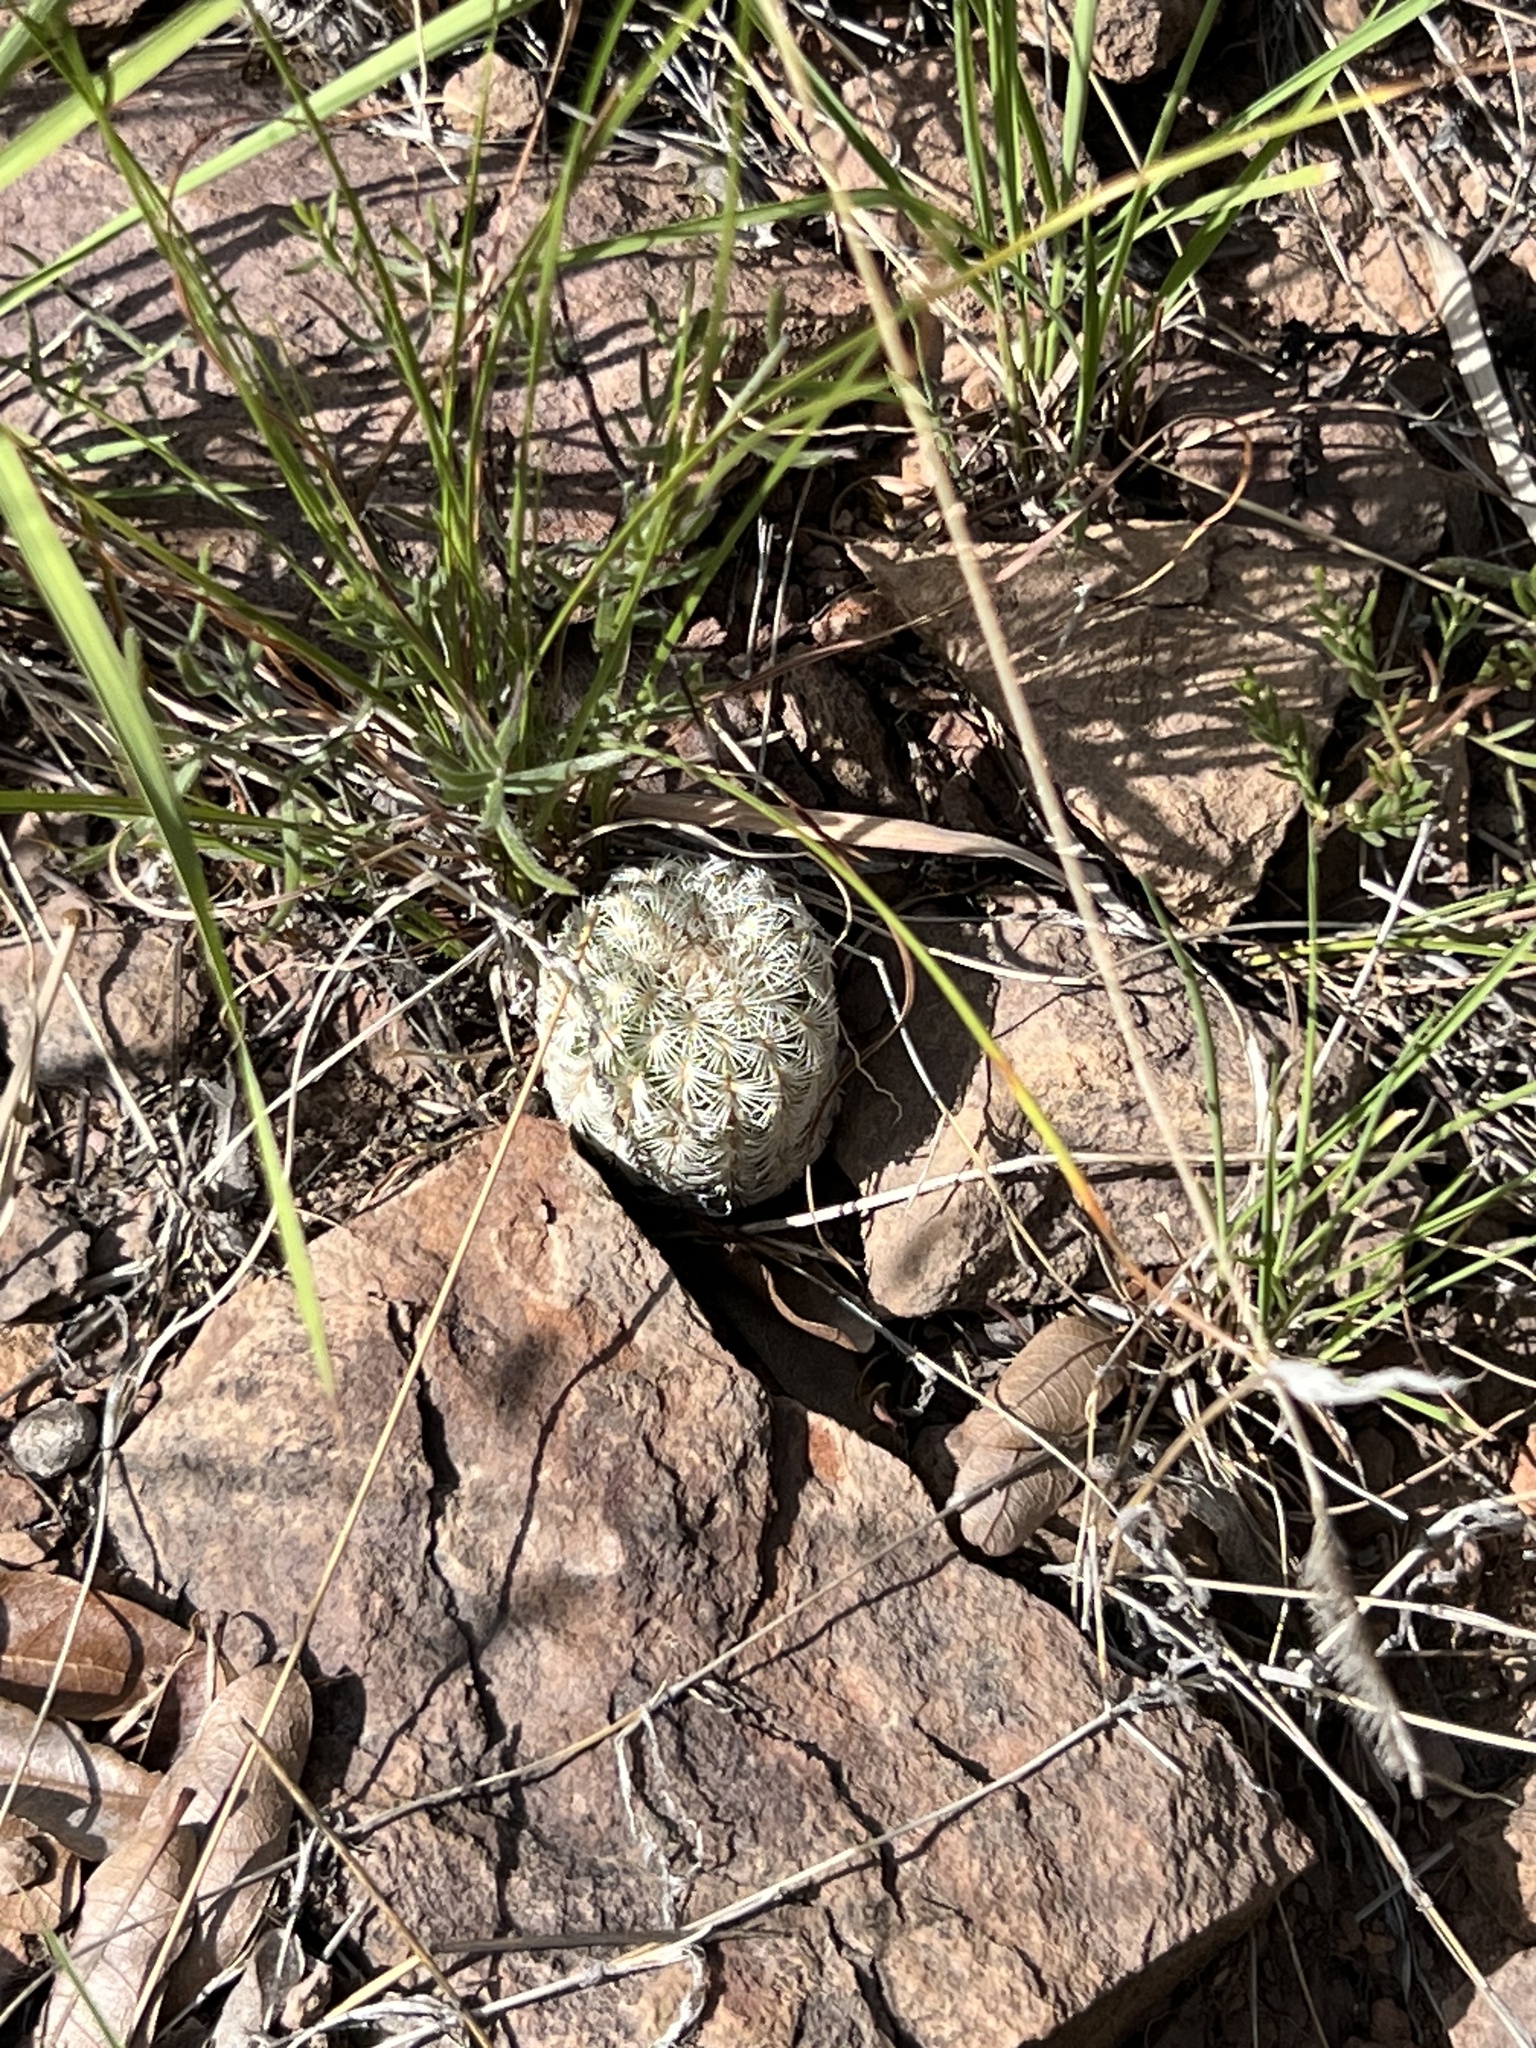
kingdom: Plantae
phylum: Tracheophyta
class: Magnoliopsida
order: Caryophyllales
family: Cactaceae
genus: Echinocereus
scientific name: Echinocereus rigidissimus
